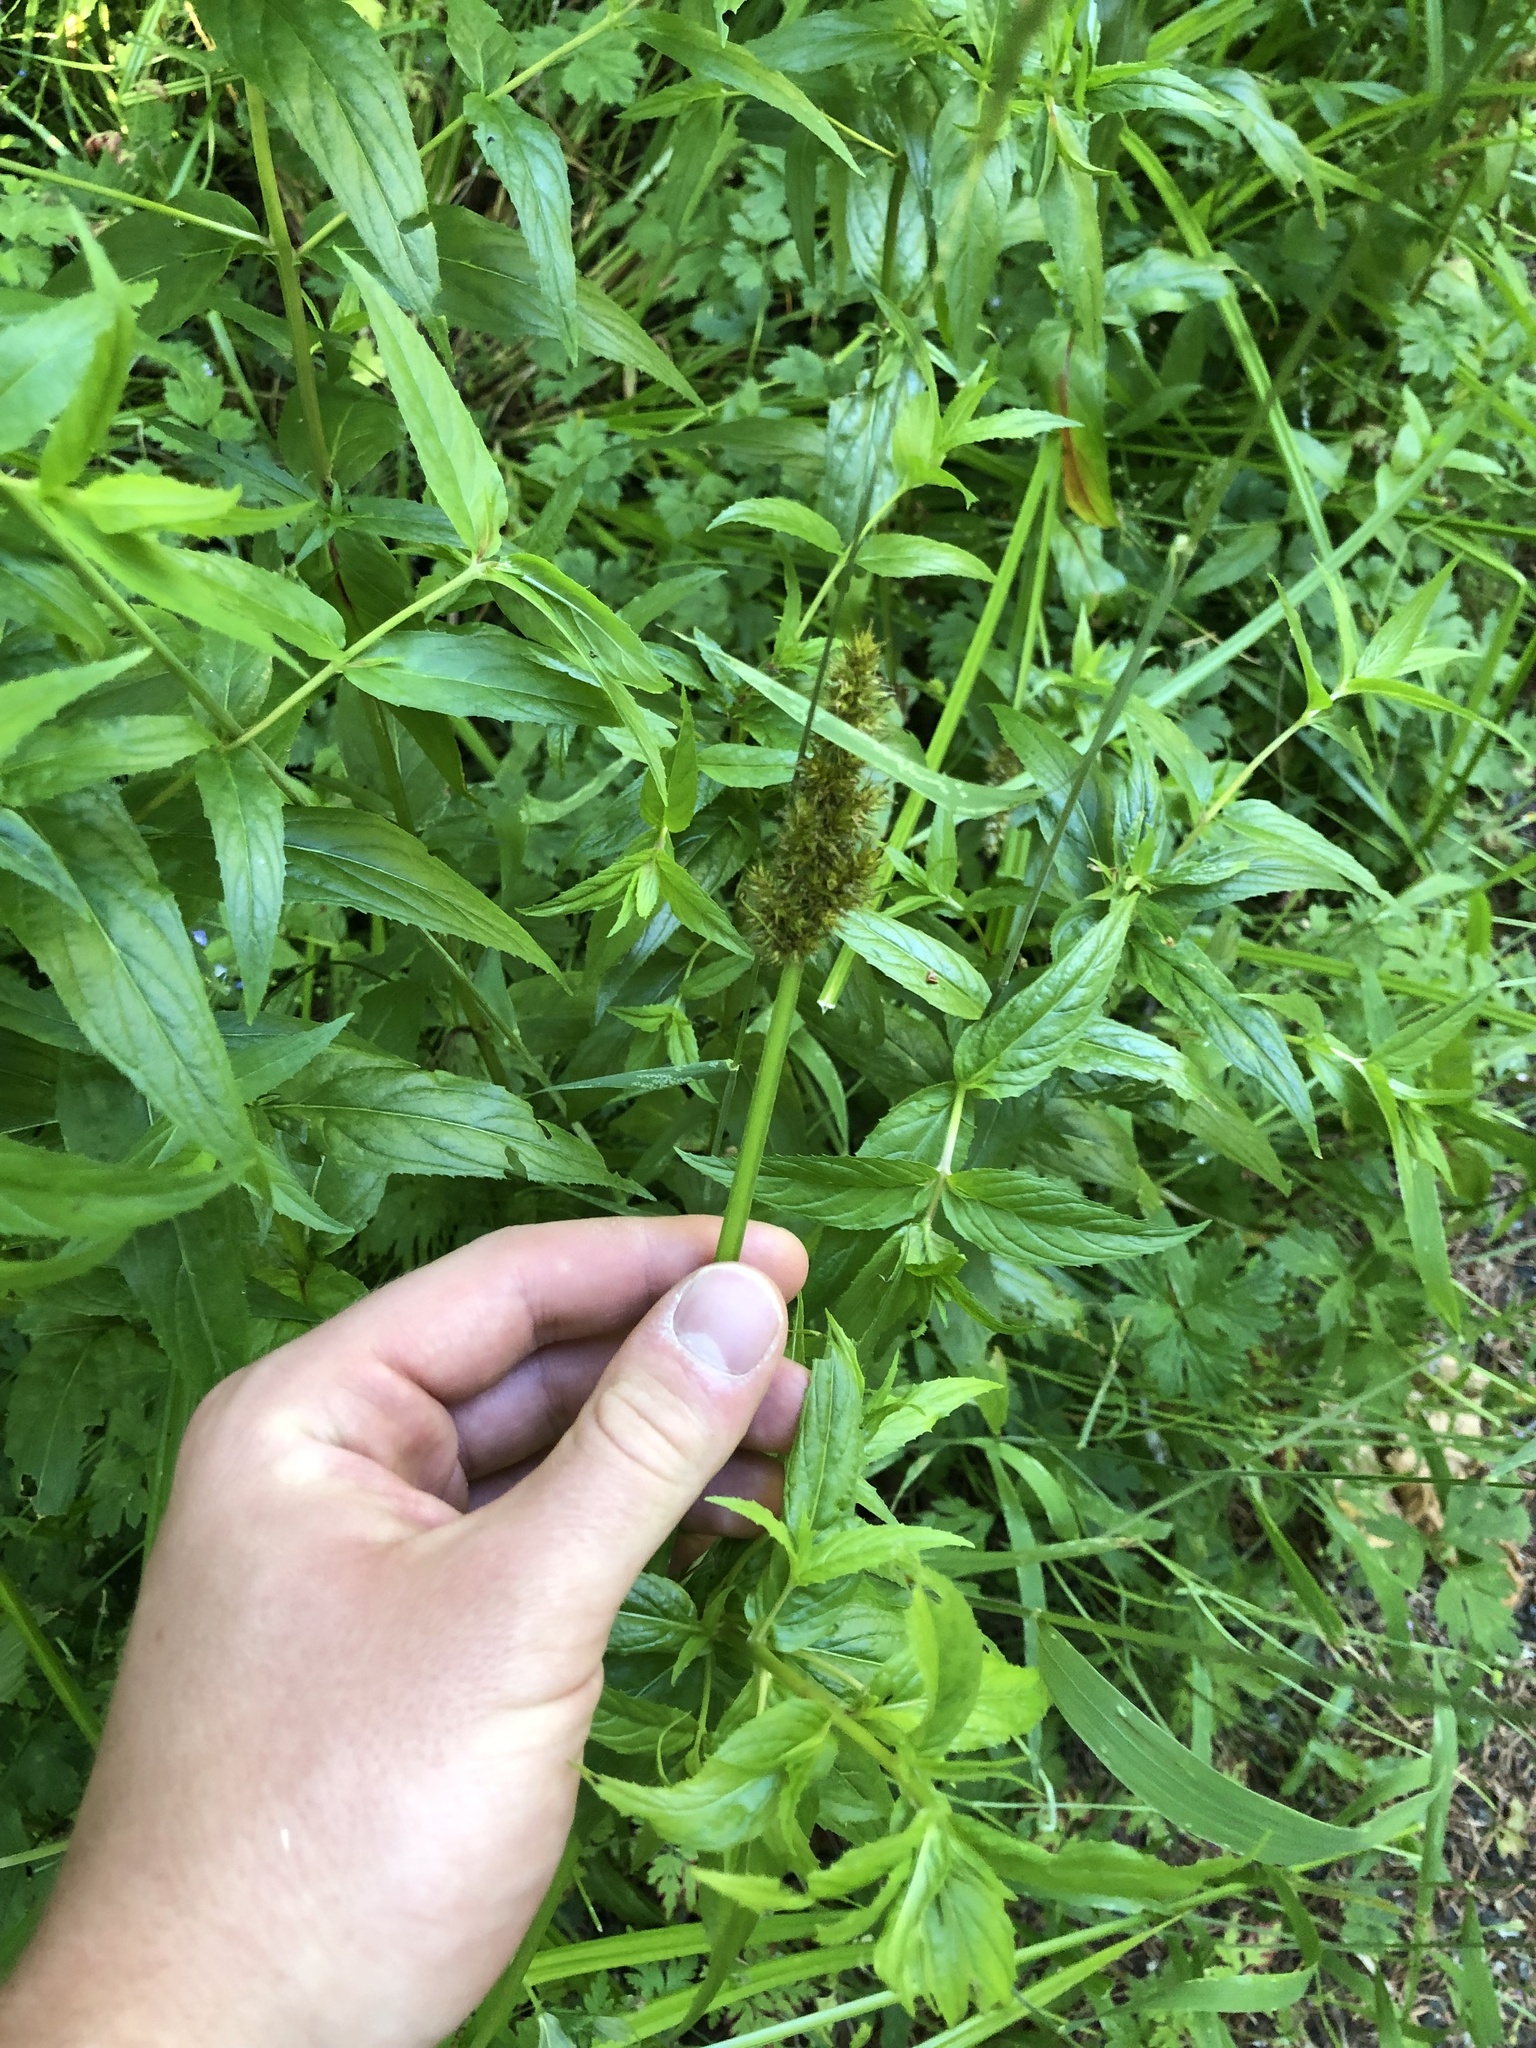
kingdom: Plantae
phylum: Tracheophyta
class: Liliopsida
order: Poales
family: Cyperaceae
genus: Carex
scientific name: Carex stipata
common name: Awl-fruited sedge
